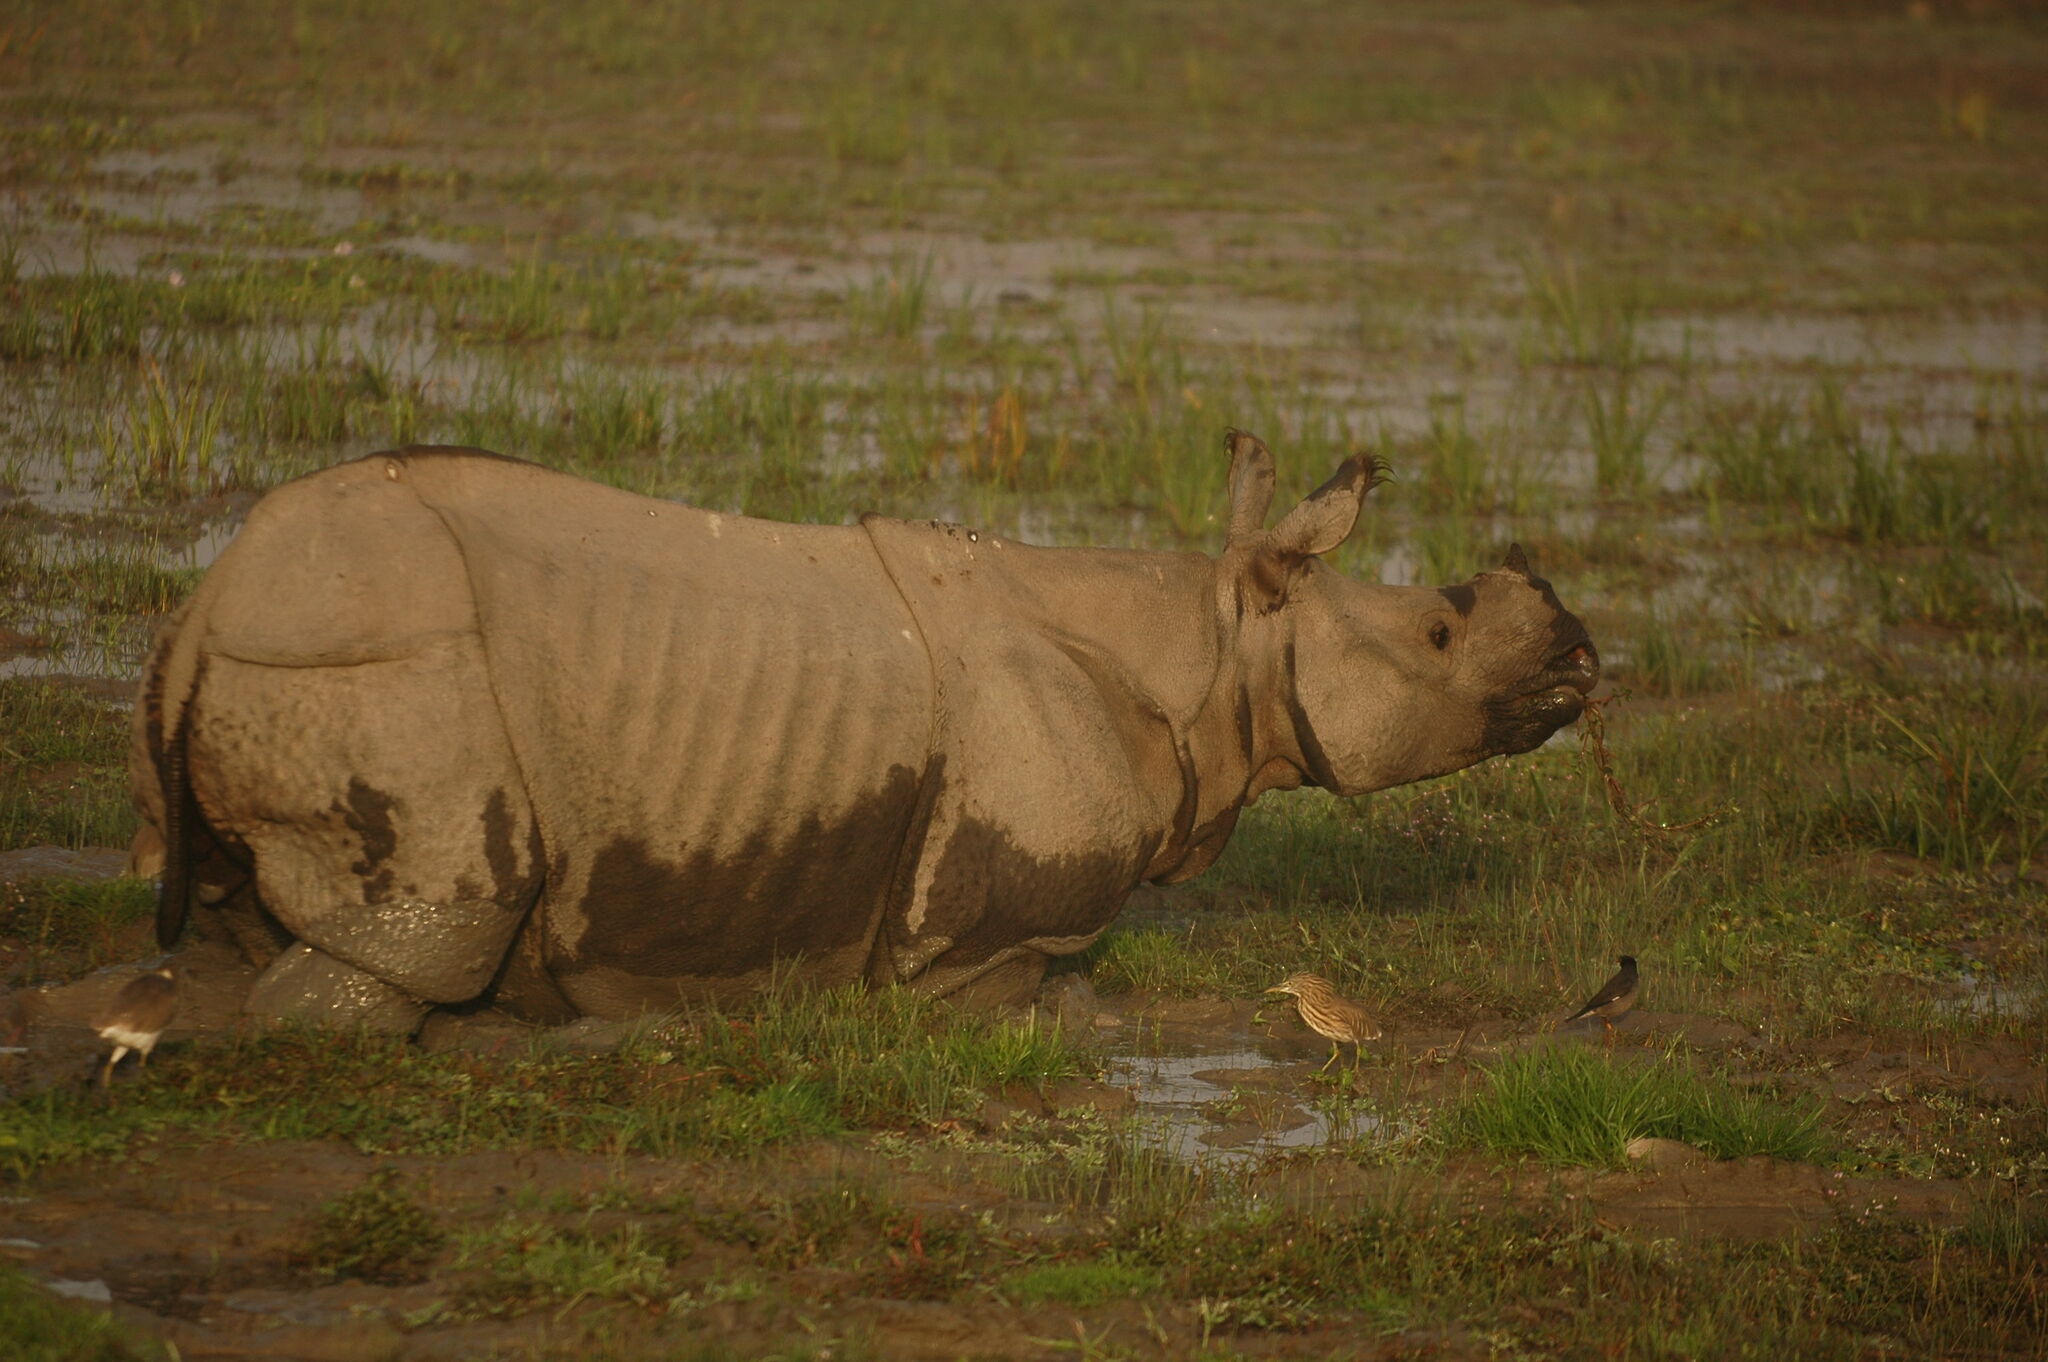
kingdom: Animalia
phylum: Chordata
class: Mammalia
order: Perissodactyla
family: Rhinocerotidae
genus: Rhinoceros
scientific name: Rhinoceros unicornis
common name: Indian rhinoceros
